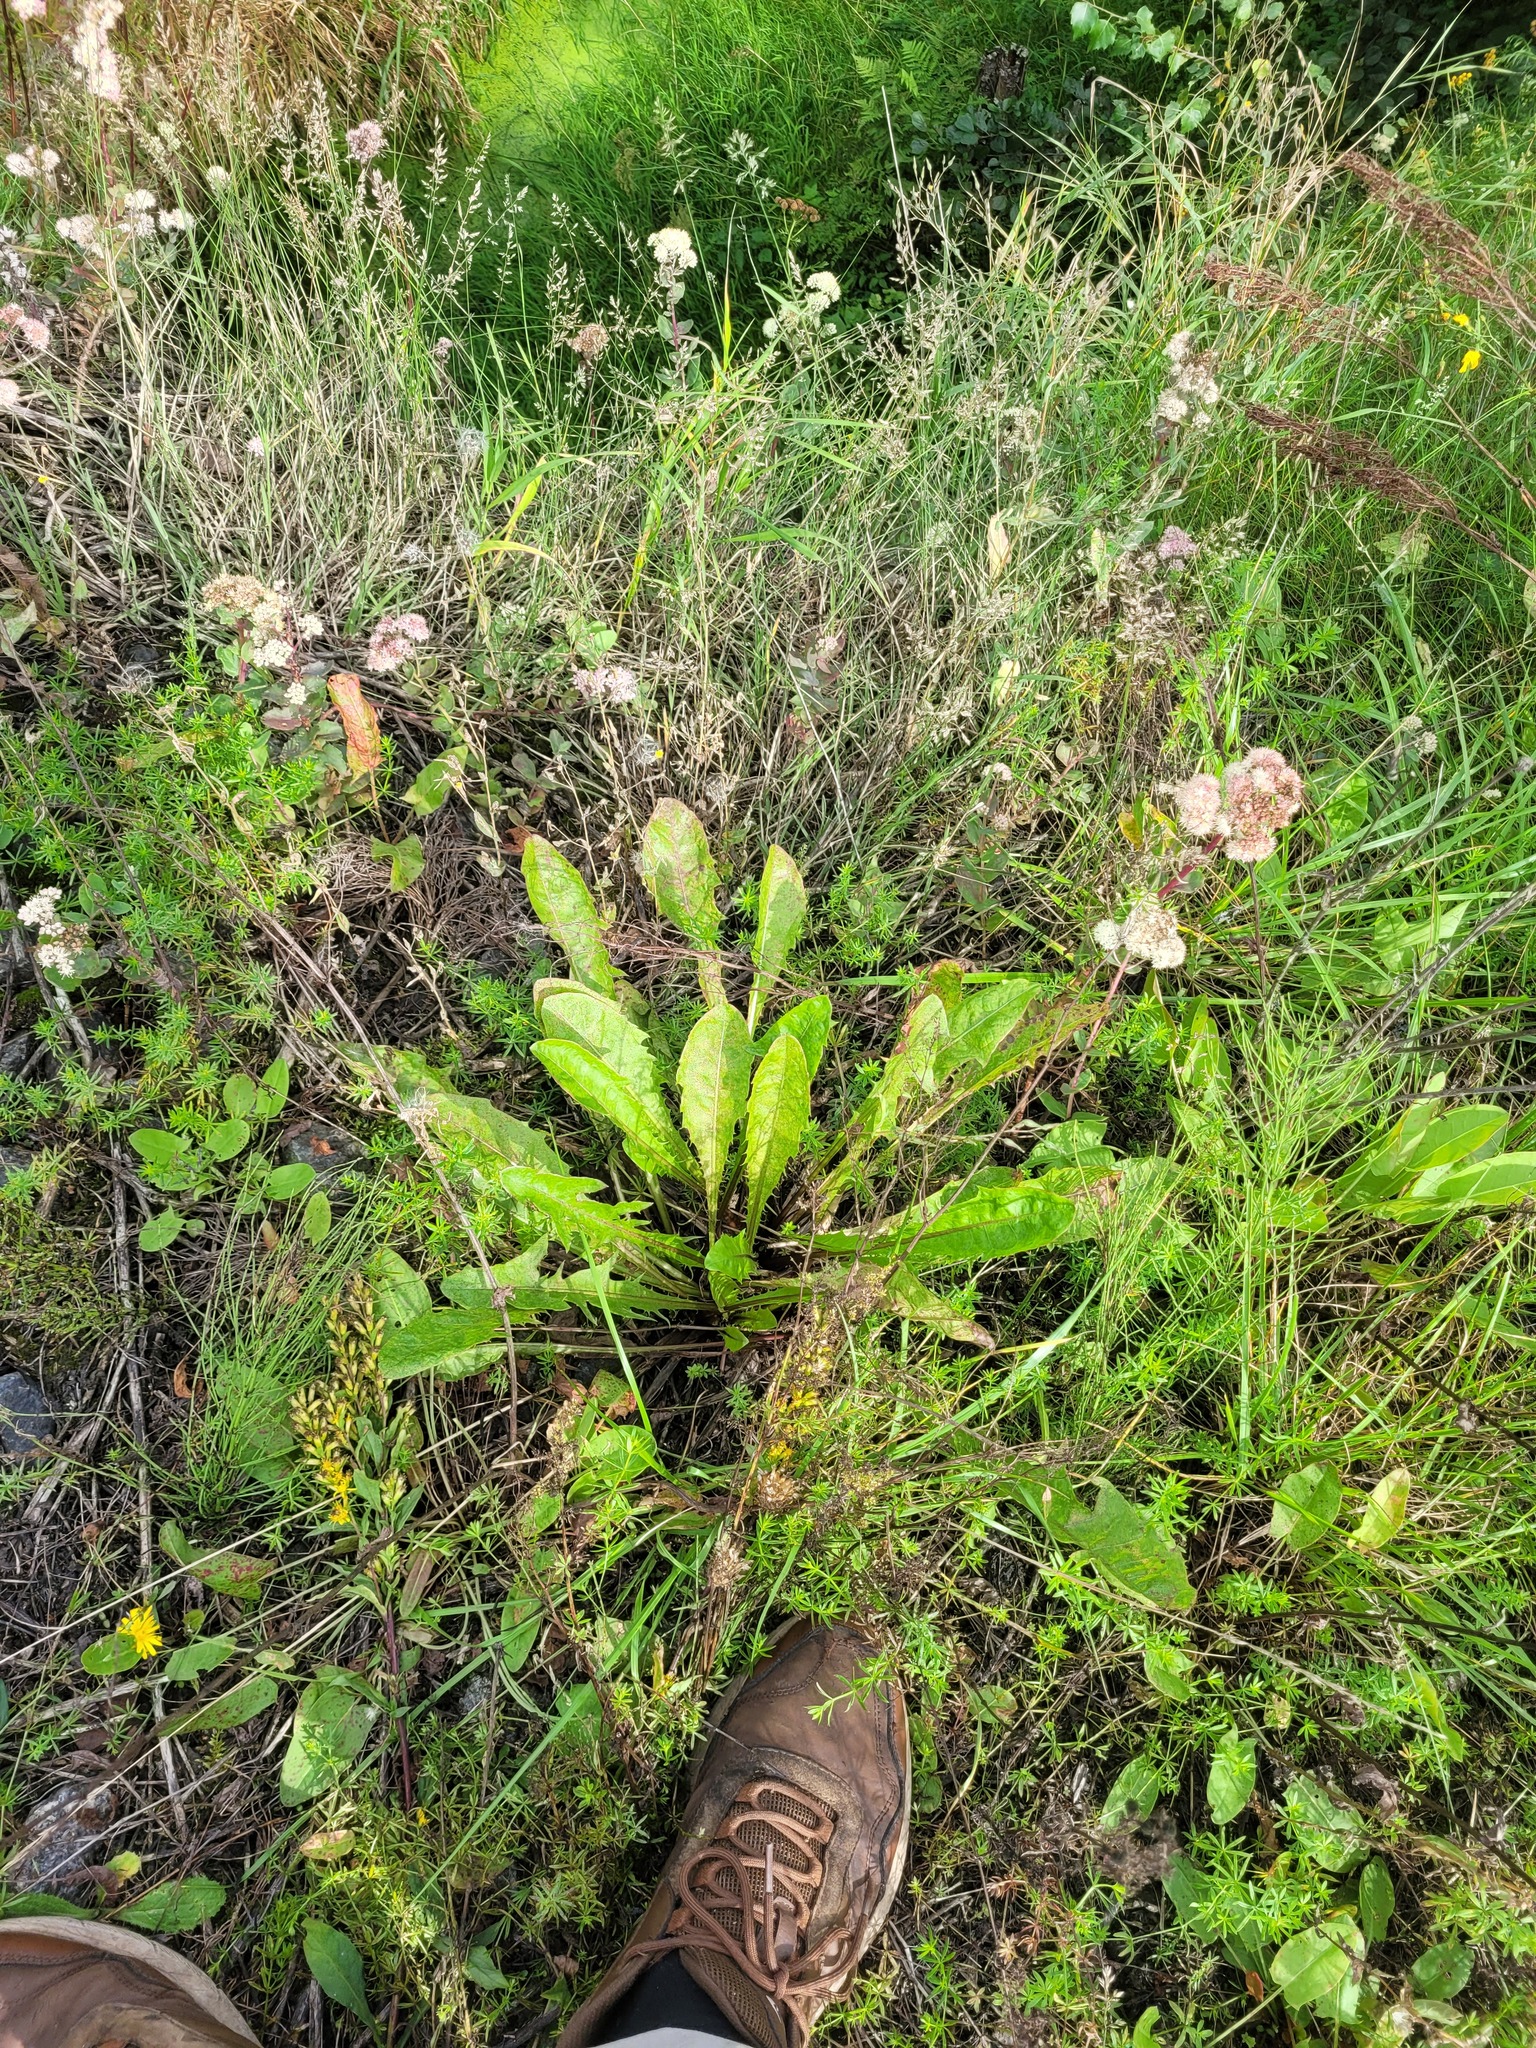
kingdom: Plantae
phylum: Tracheophyta
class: Magnoliopsida
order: Asterales
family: Asteraceae
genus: Taraxacum
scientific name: Taraxacum officinale
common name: Common dandelion
